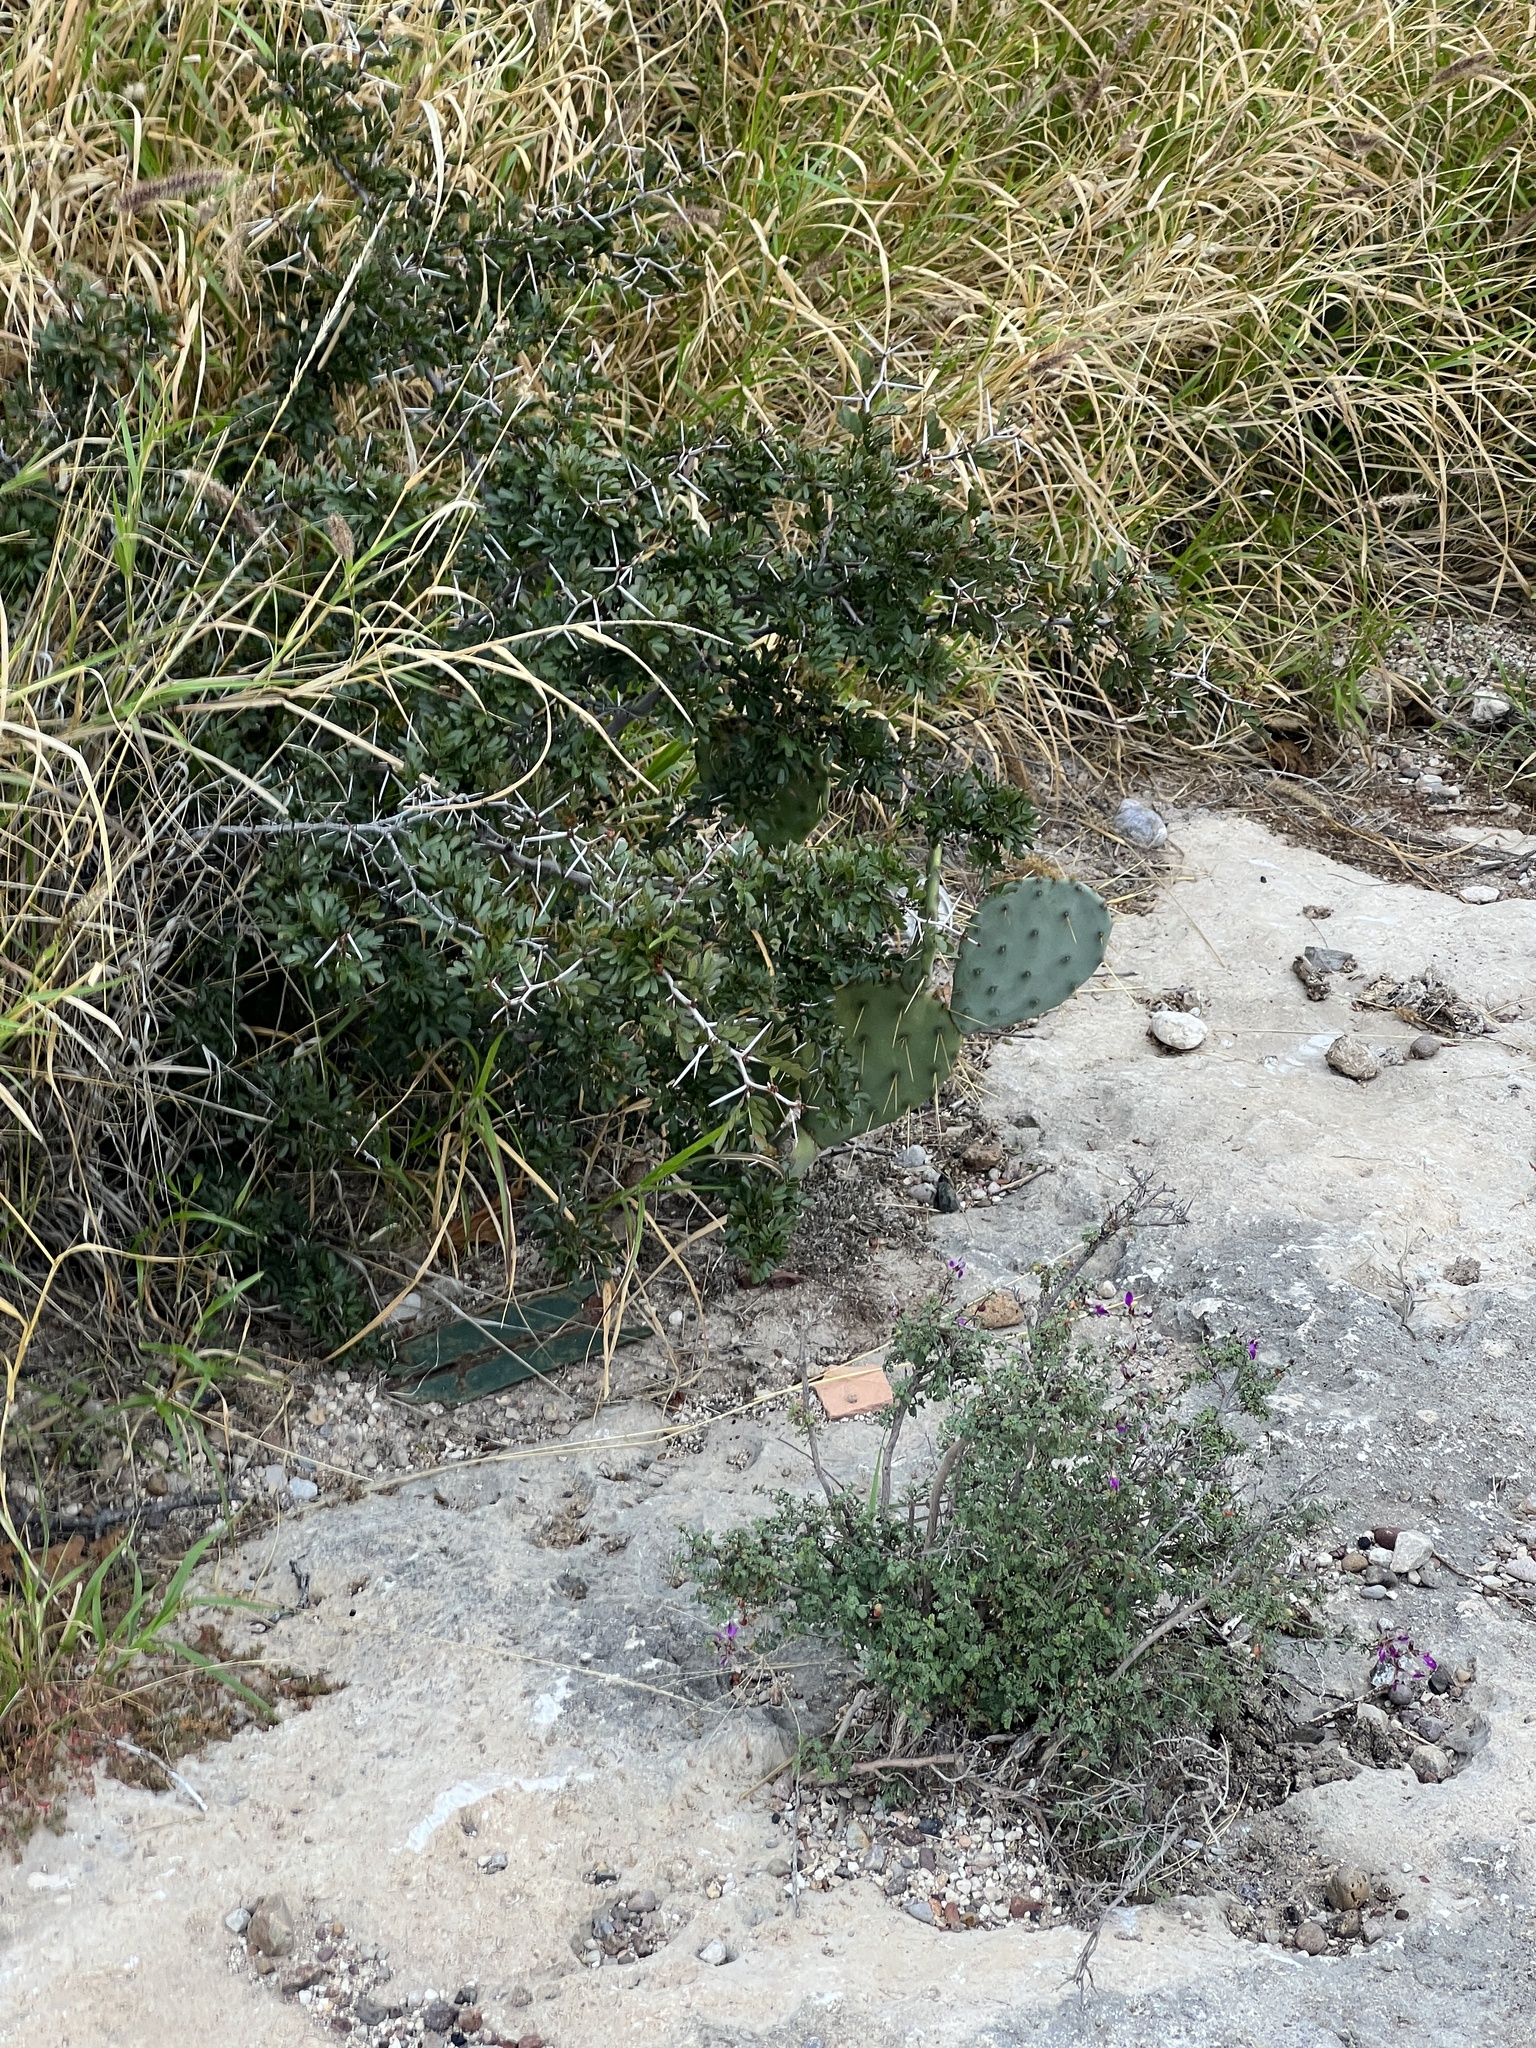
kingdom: Plantae
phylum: Tracheophyta
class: Magnoliopsida
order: Fabales
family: Fabaceae
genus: Vachellia
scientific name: Vachellia rigidula
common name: Blackbrush
